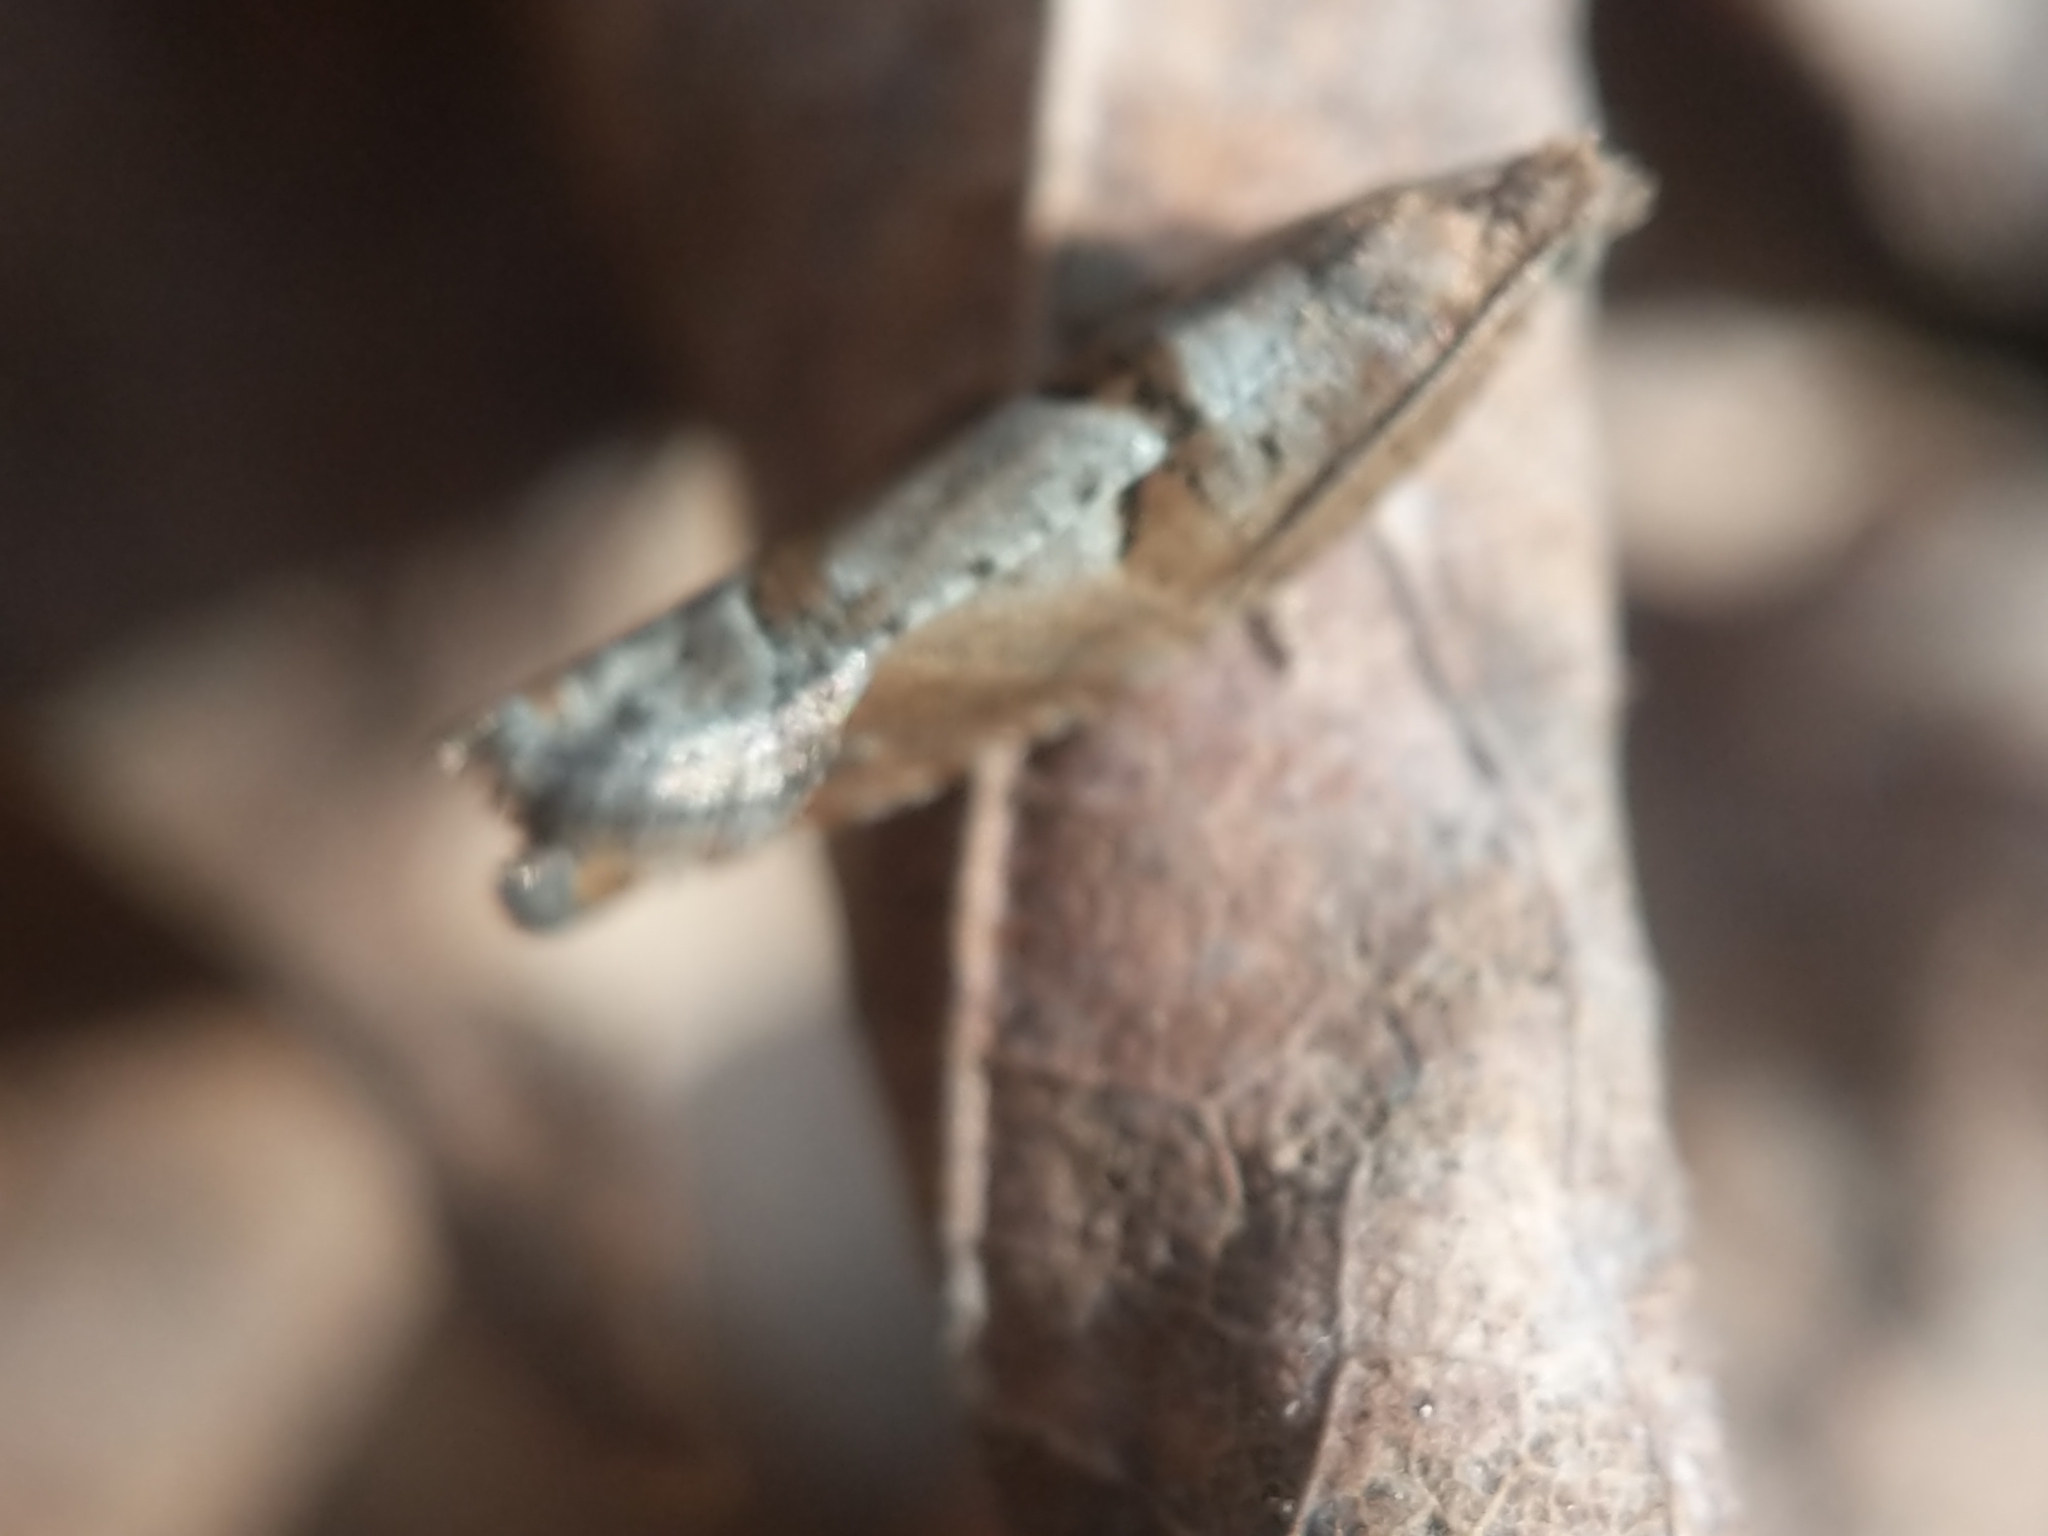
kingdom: Animalia
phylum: Arthropoda
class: Insecta
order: Lepidoptera
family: Tortricidae
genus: Pseudexentera
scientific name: Pseudexentera sepia
